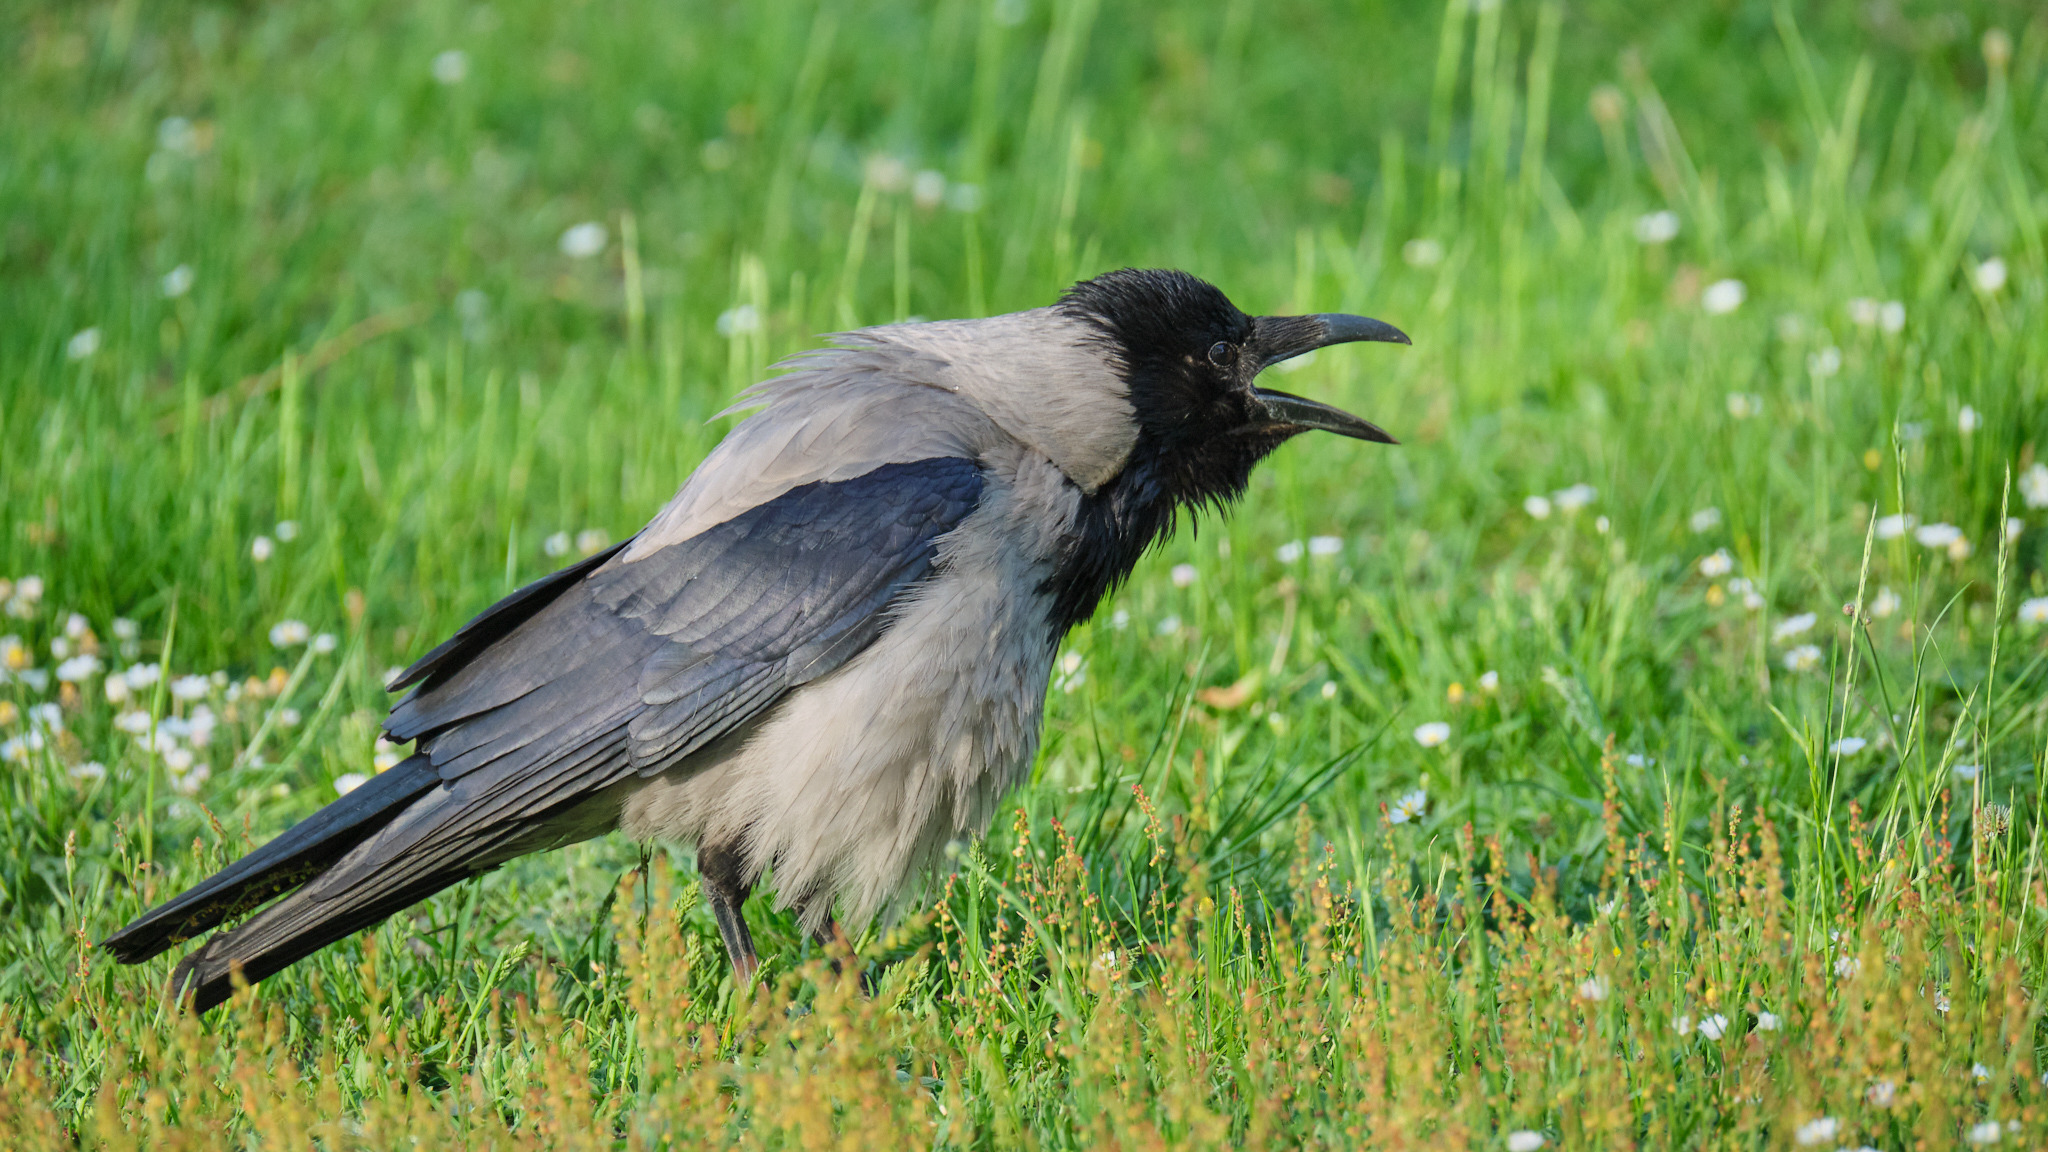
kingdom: Animalia
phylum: Chordata
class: Aves
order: Passeriformes
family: Corvidae
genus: Corvus
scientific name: Corvus cornix
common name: Hooded crow
